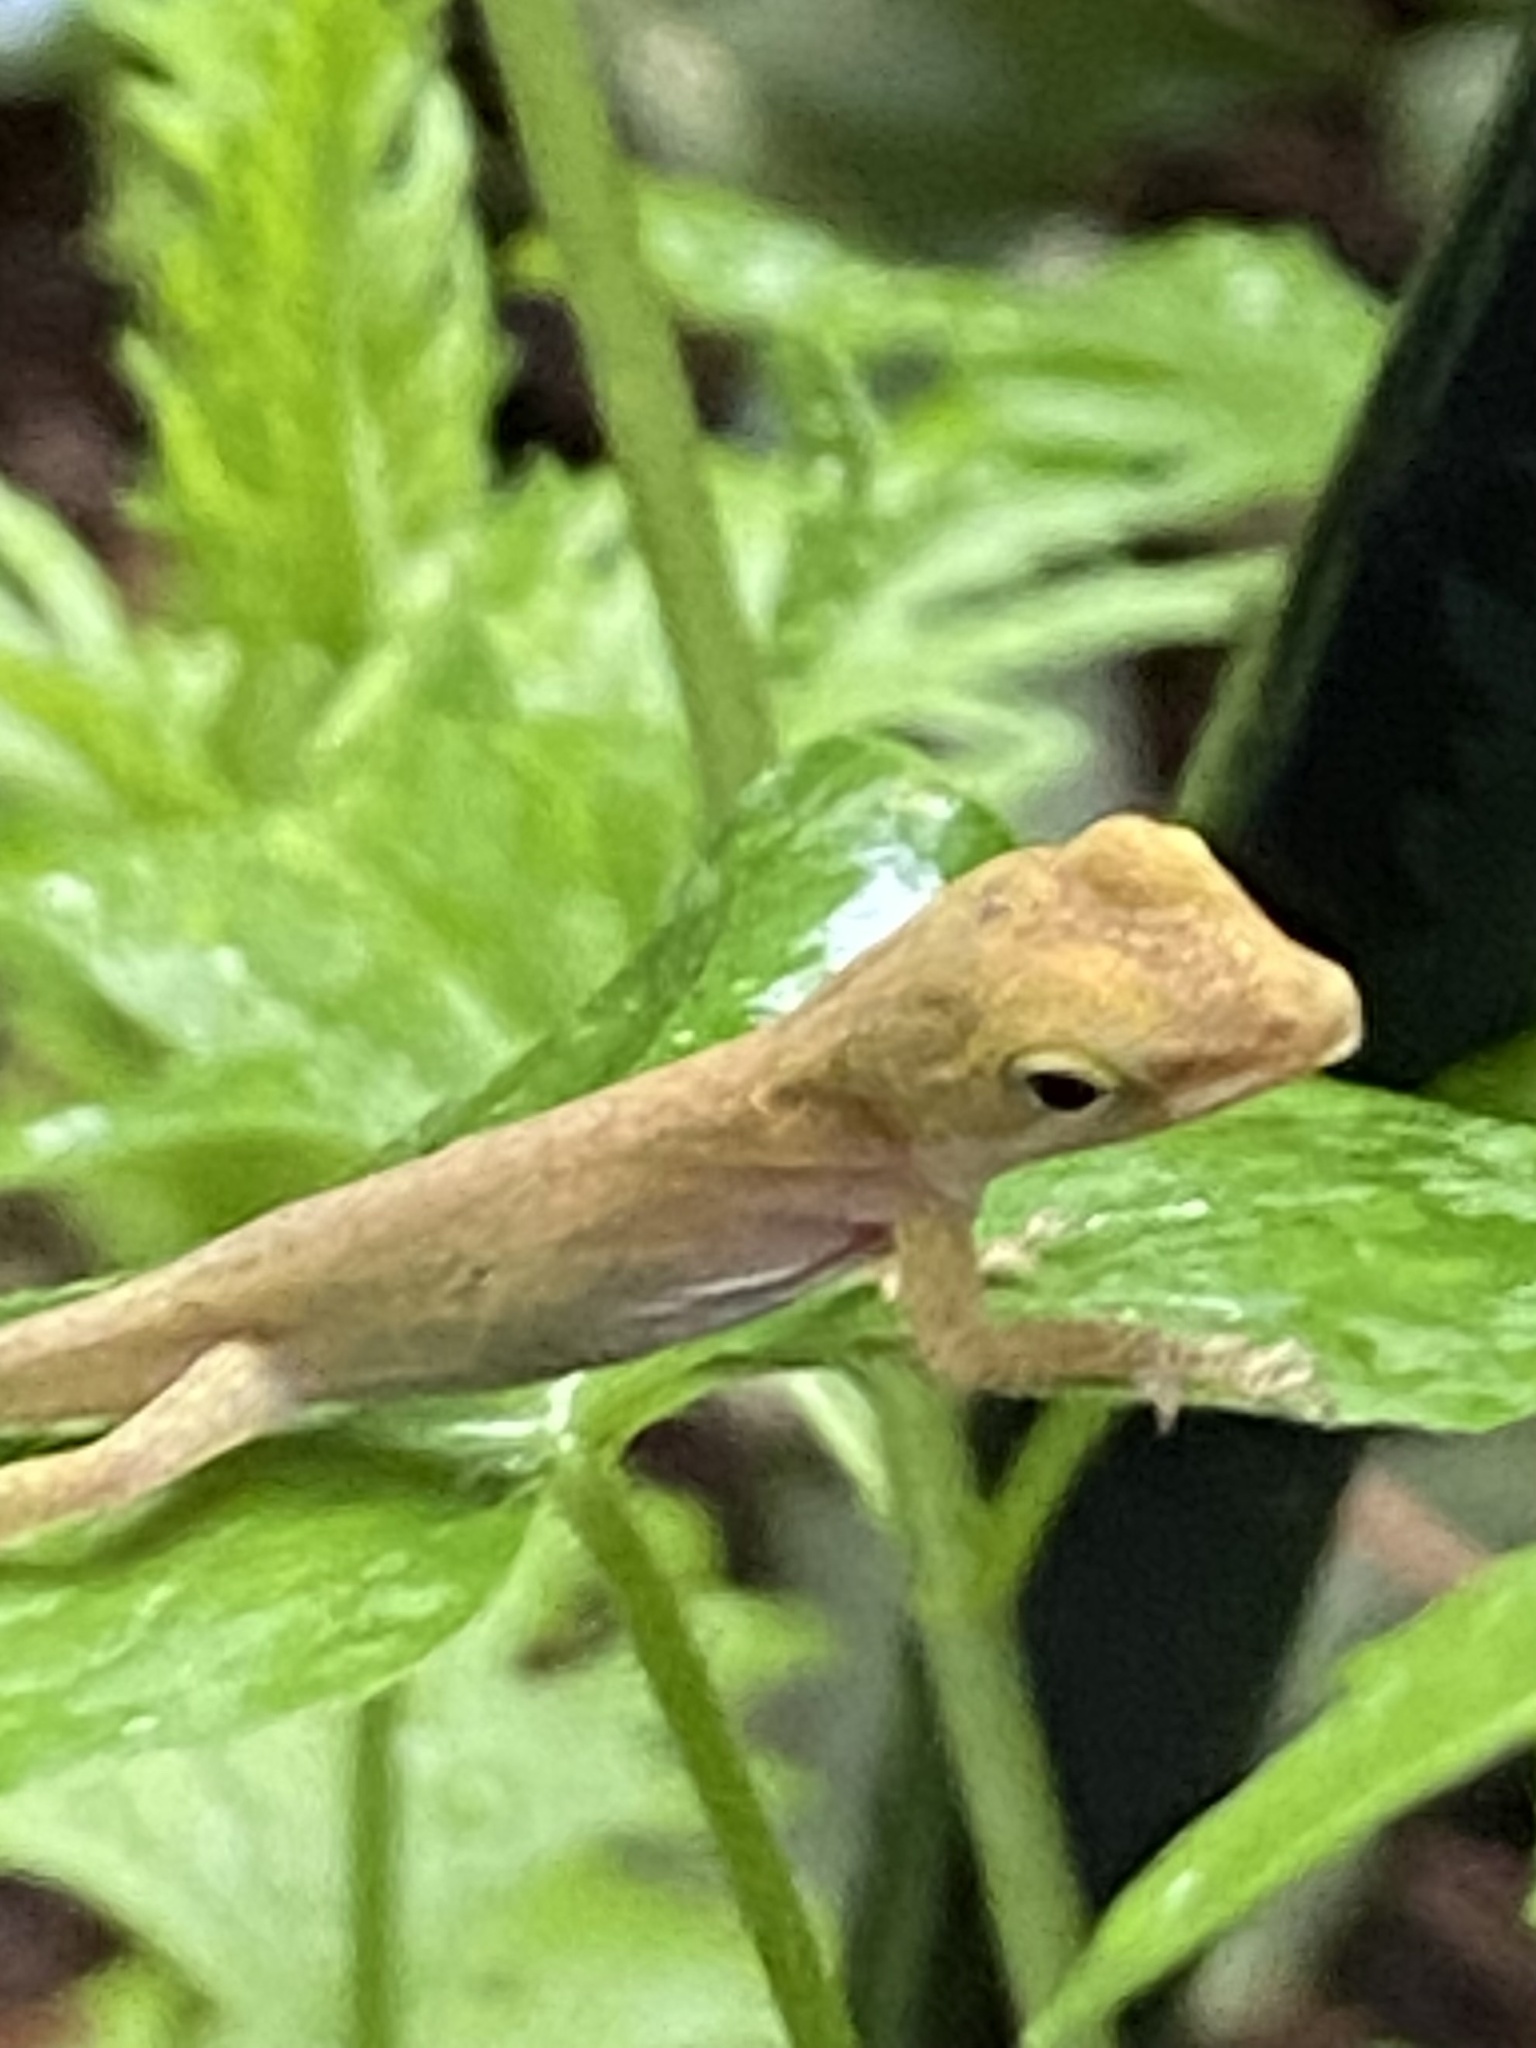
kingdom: Animalia
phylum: Chordata
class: Squamata
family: Dactyloidae
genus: Anolis
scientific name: Anolis carolinensis
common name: Green anole
